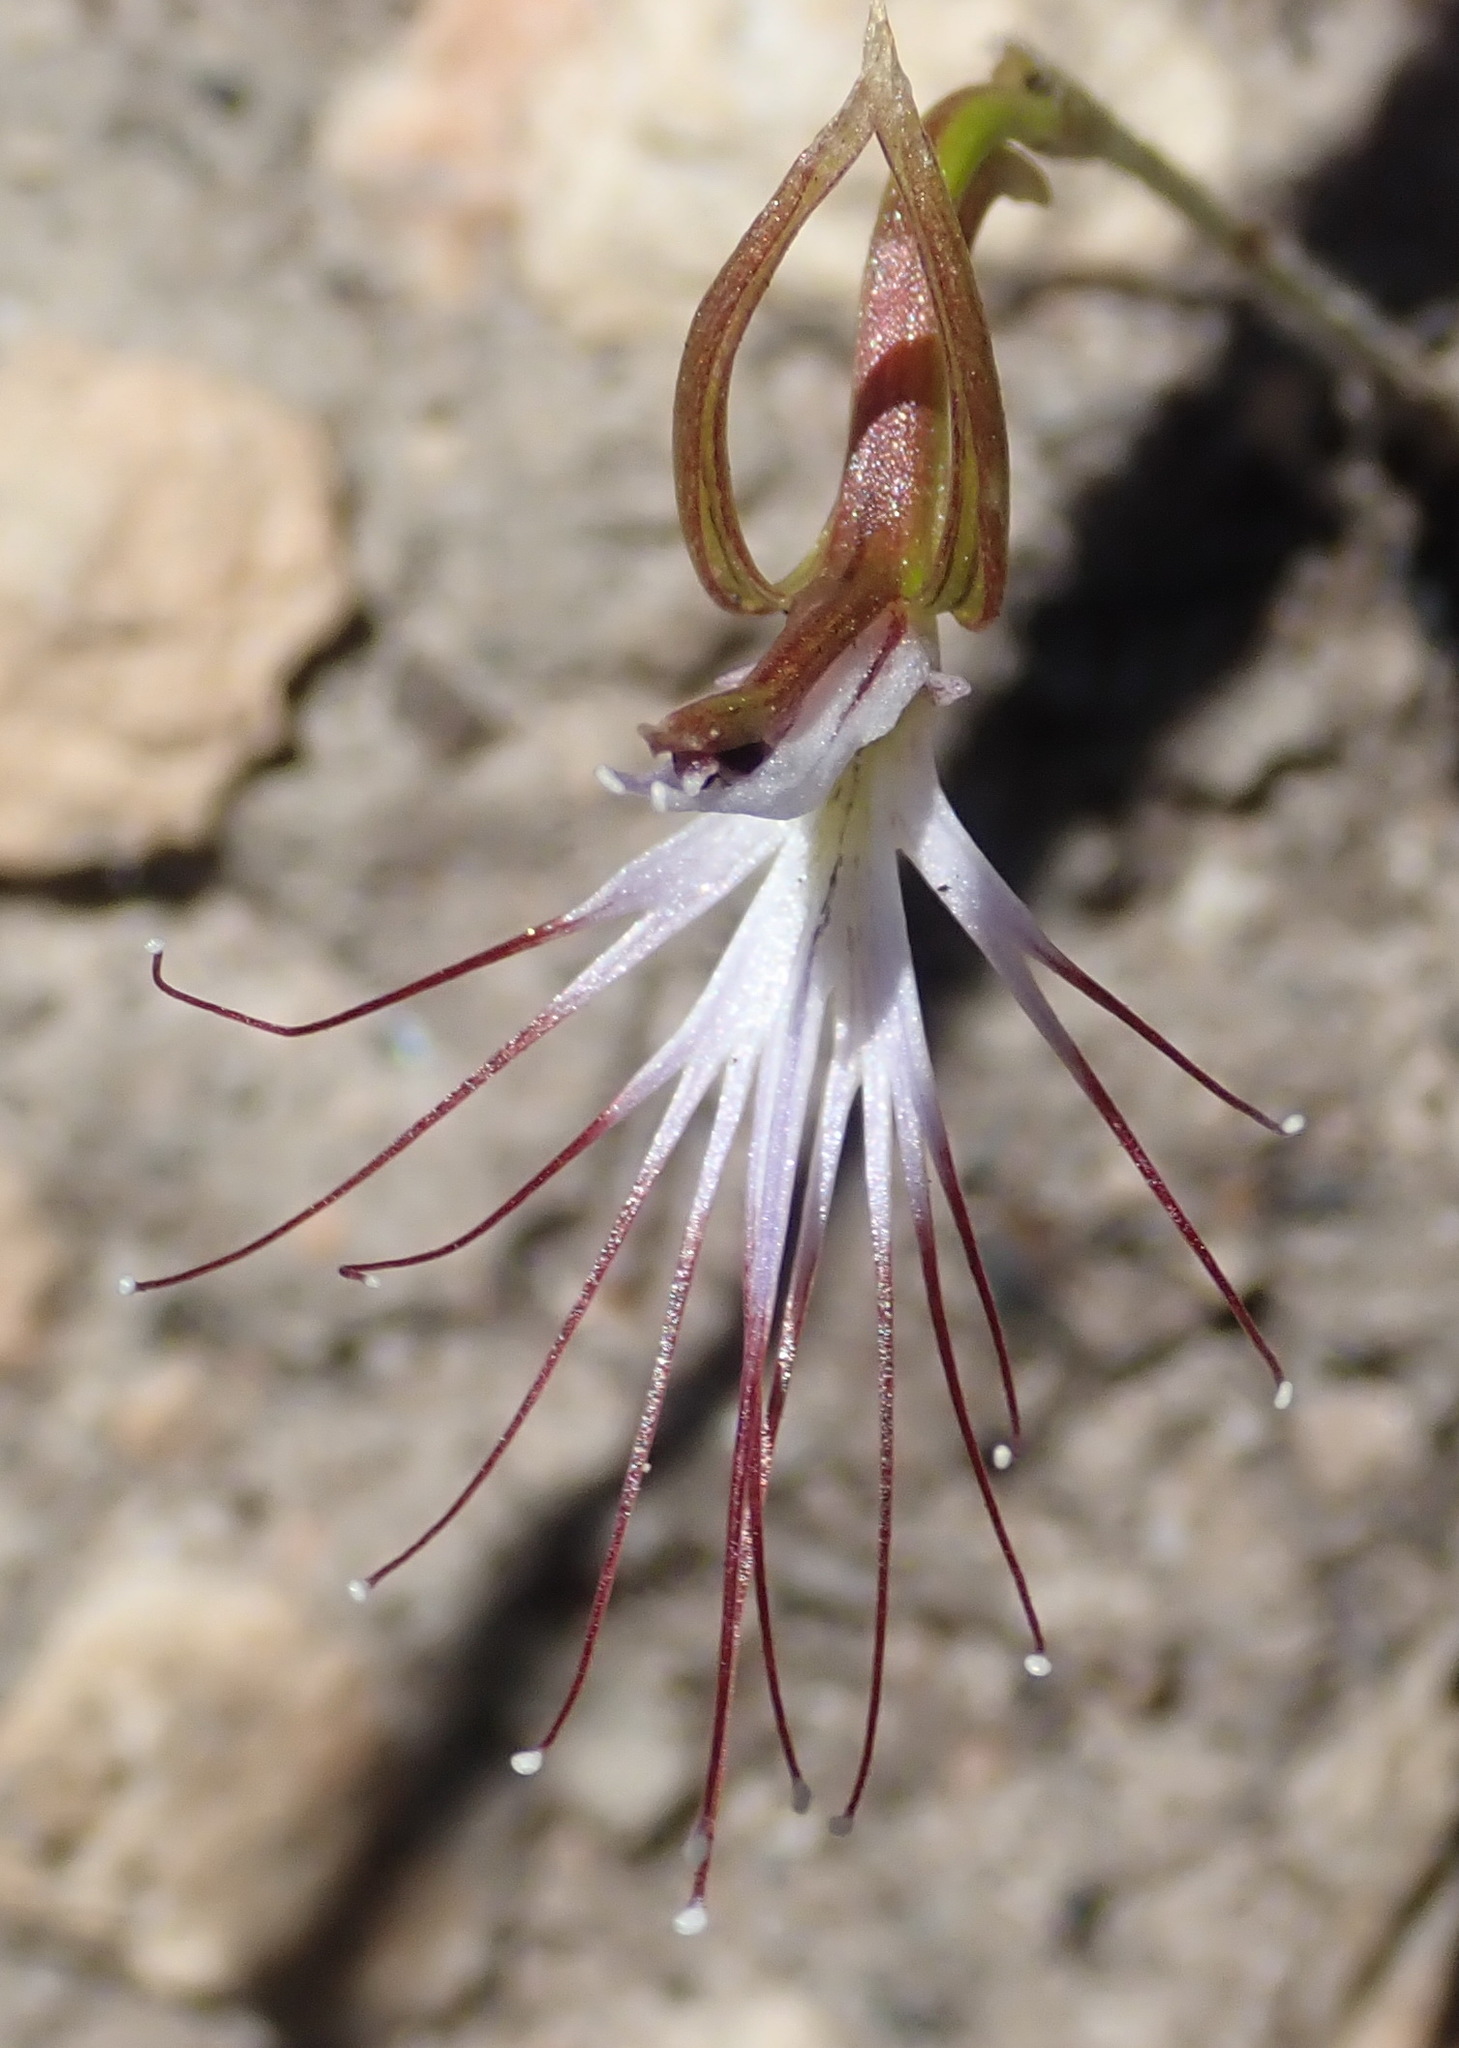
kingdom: Plantae
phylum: Tracheophyta
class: Liliopsida
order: Asparagales
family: Orchidaceae
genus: Holothrix
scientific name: Holothrix etheliae
